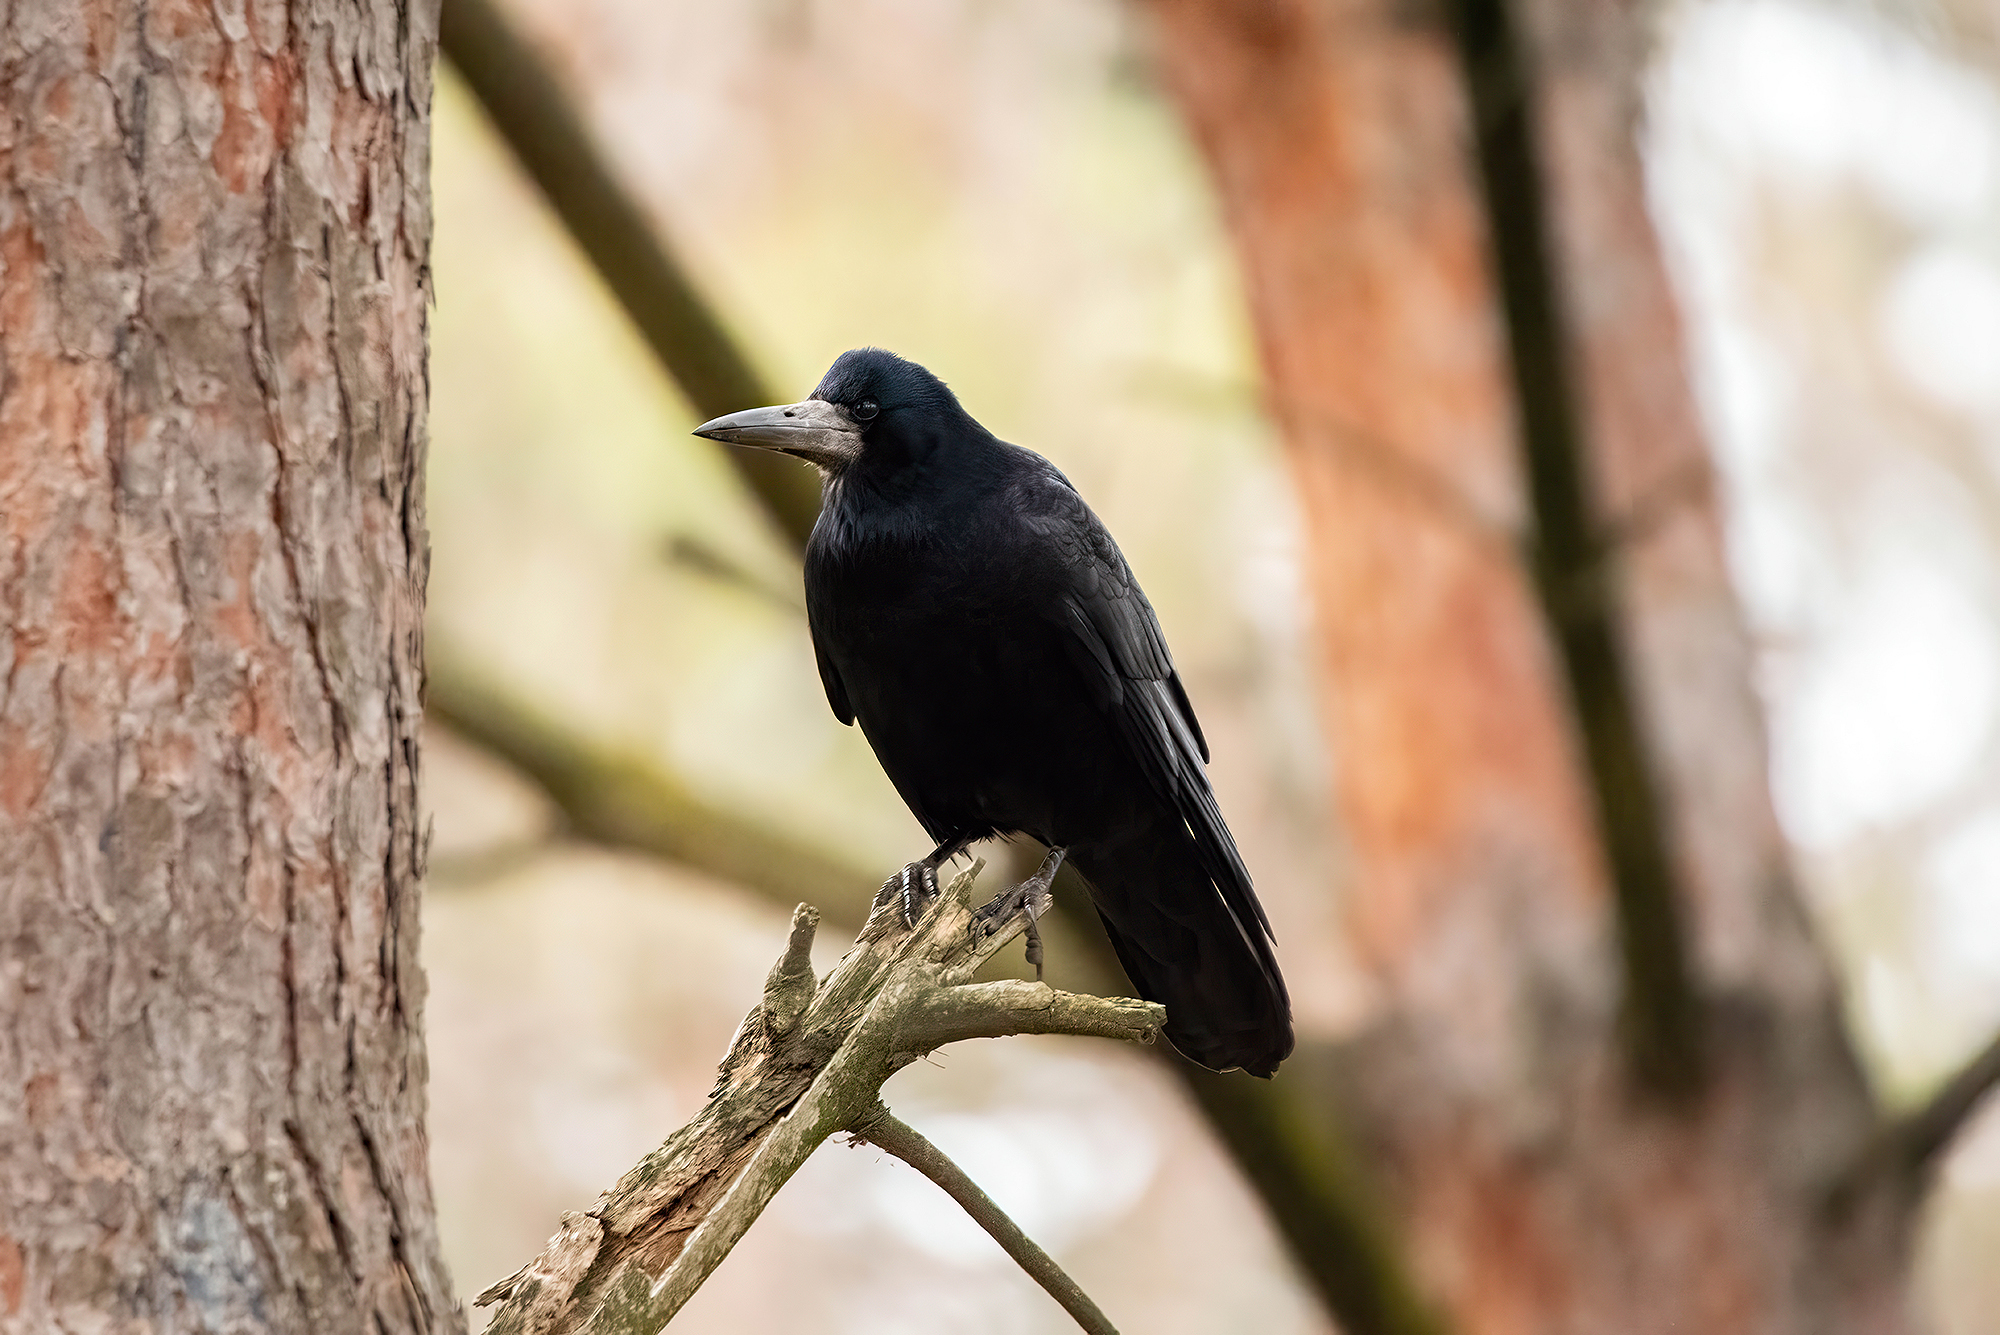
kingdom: Animalia
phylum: Chordata
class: Aves
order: Passeriformes
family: Corvidae
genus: Corvus
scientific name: Corvus frugilegus
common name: Rook
